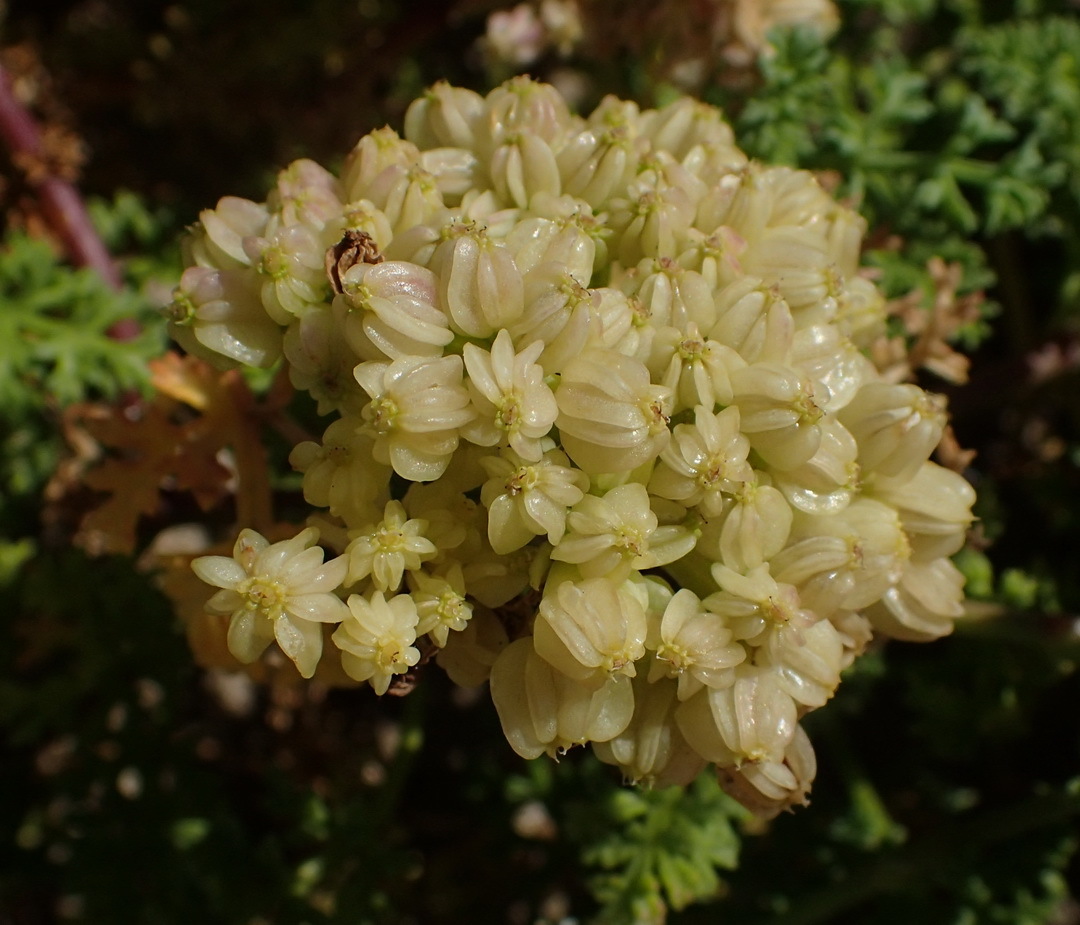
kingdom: Plantae
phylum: Tracheophyta
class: Magnoliopsida
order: Apiales
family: Apiaceae
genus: Dasispermum
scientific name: Dasispermum suffruticosum
